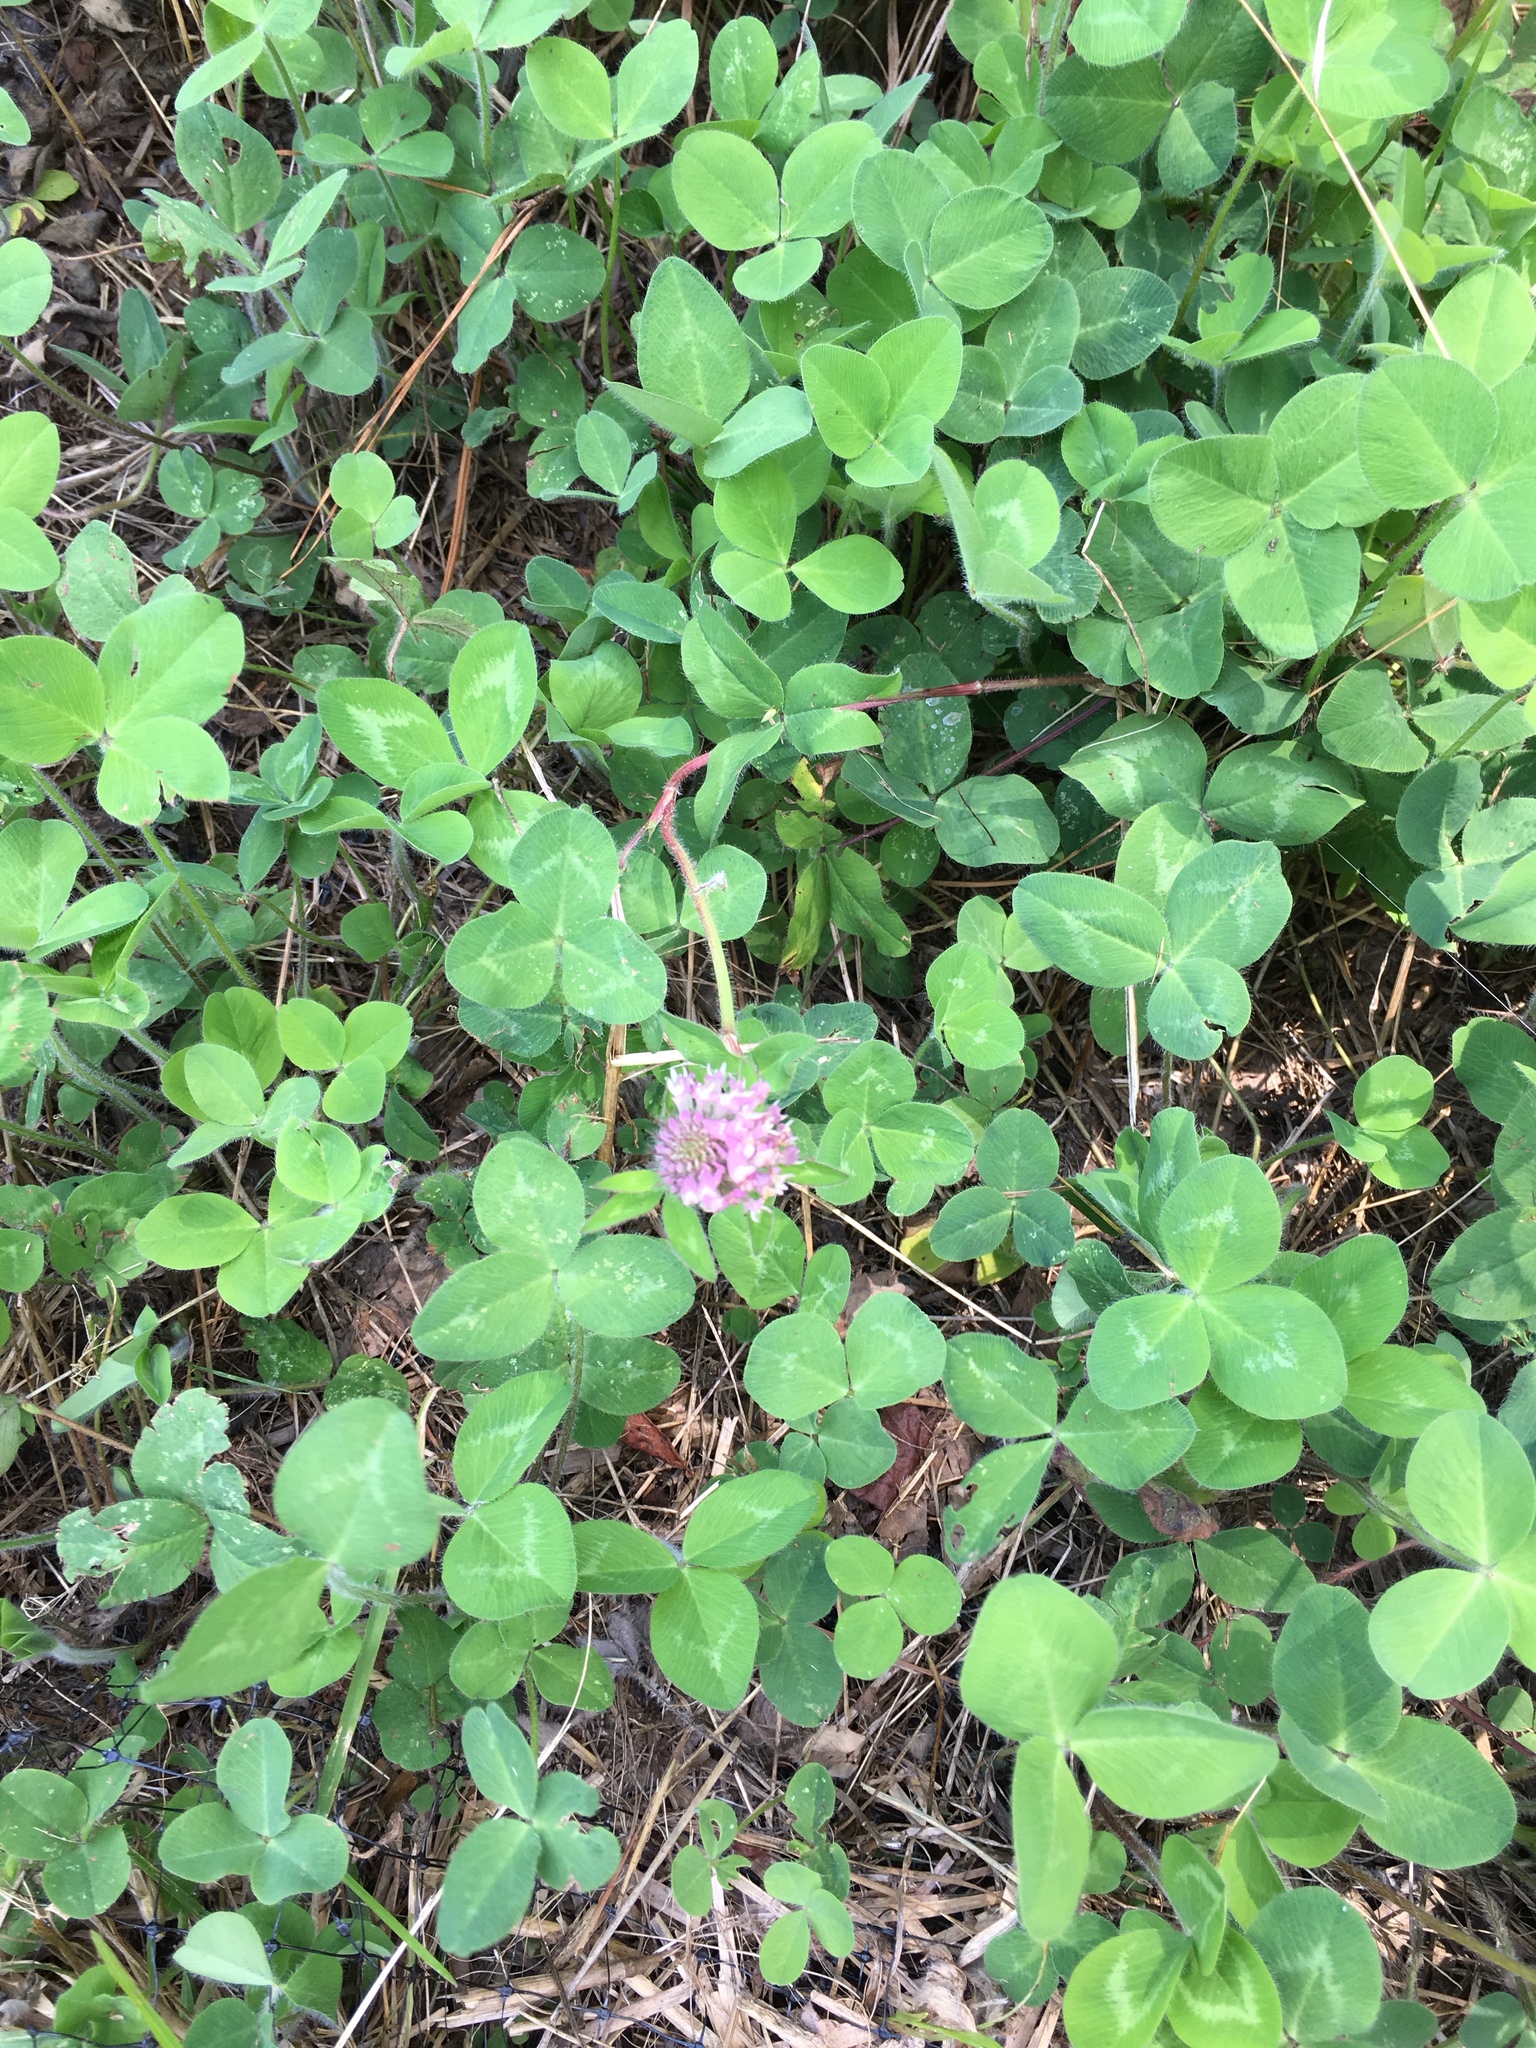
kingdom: Plantae
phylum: Tracheophyta
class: Magnoliopsida
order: Fabales
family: Fabaceae
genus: Trifolium
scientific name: Trifolium pratense
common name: Red clover
